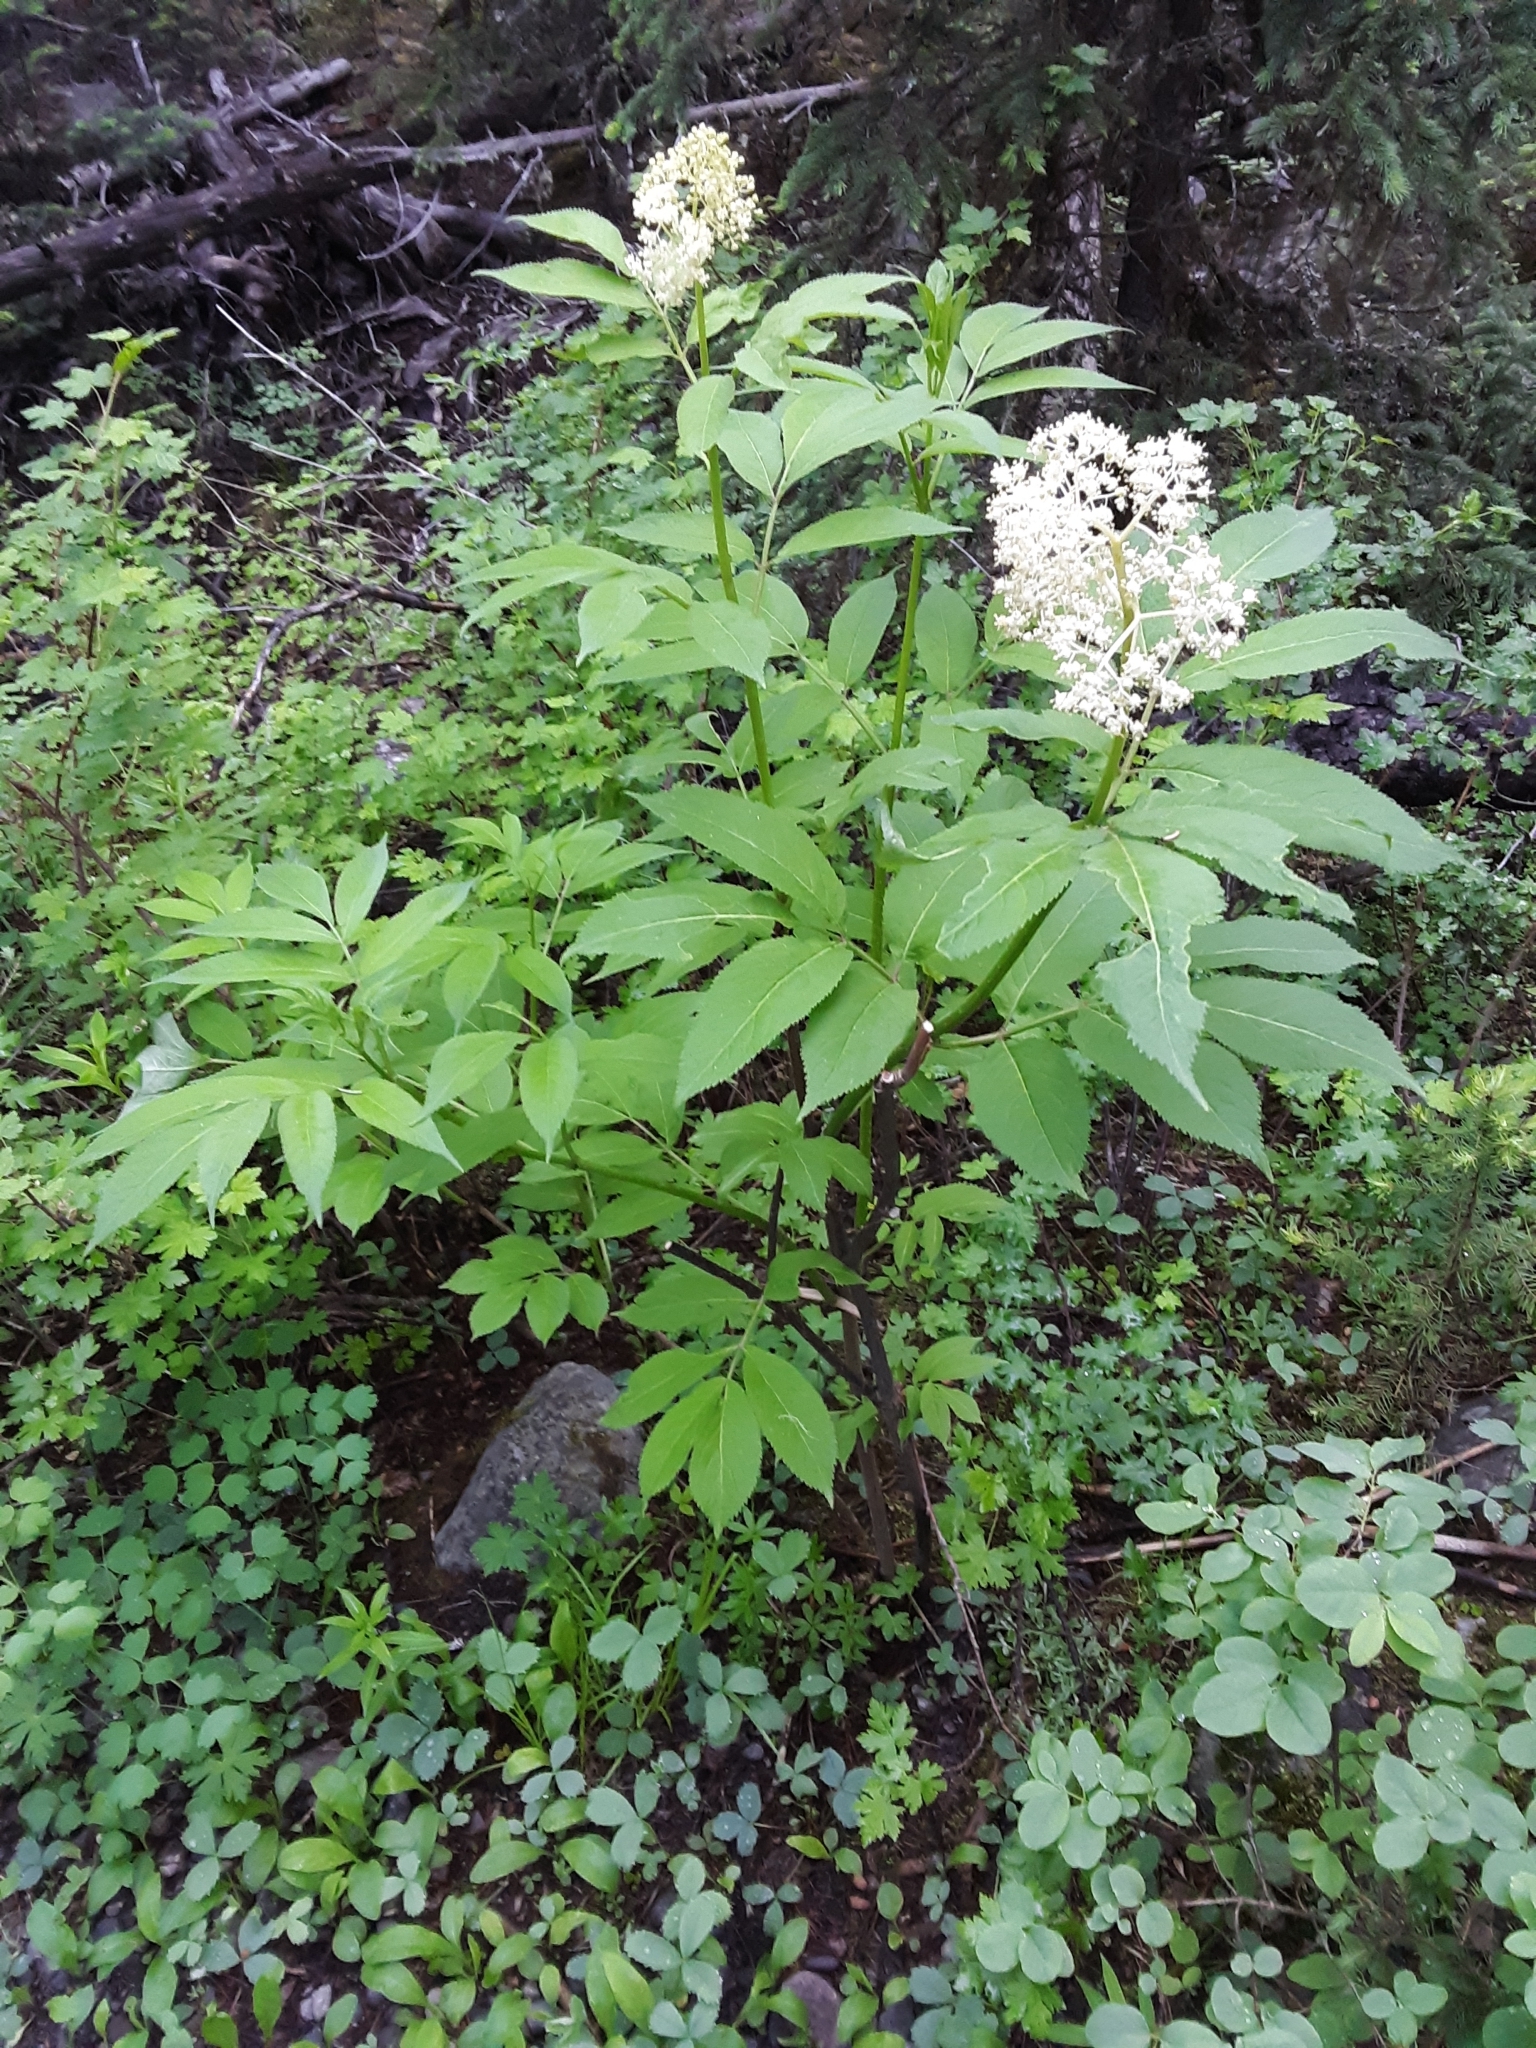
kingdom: Plantae
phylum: Tracheophyta
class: Magnoliopsida
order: Dipsacales
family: Viburnaceae
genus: Sambucus
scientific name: Sambucus racemosa
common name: Red-berried elder
